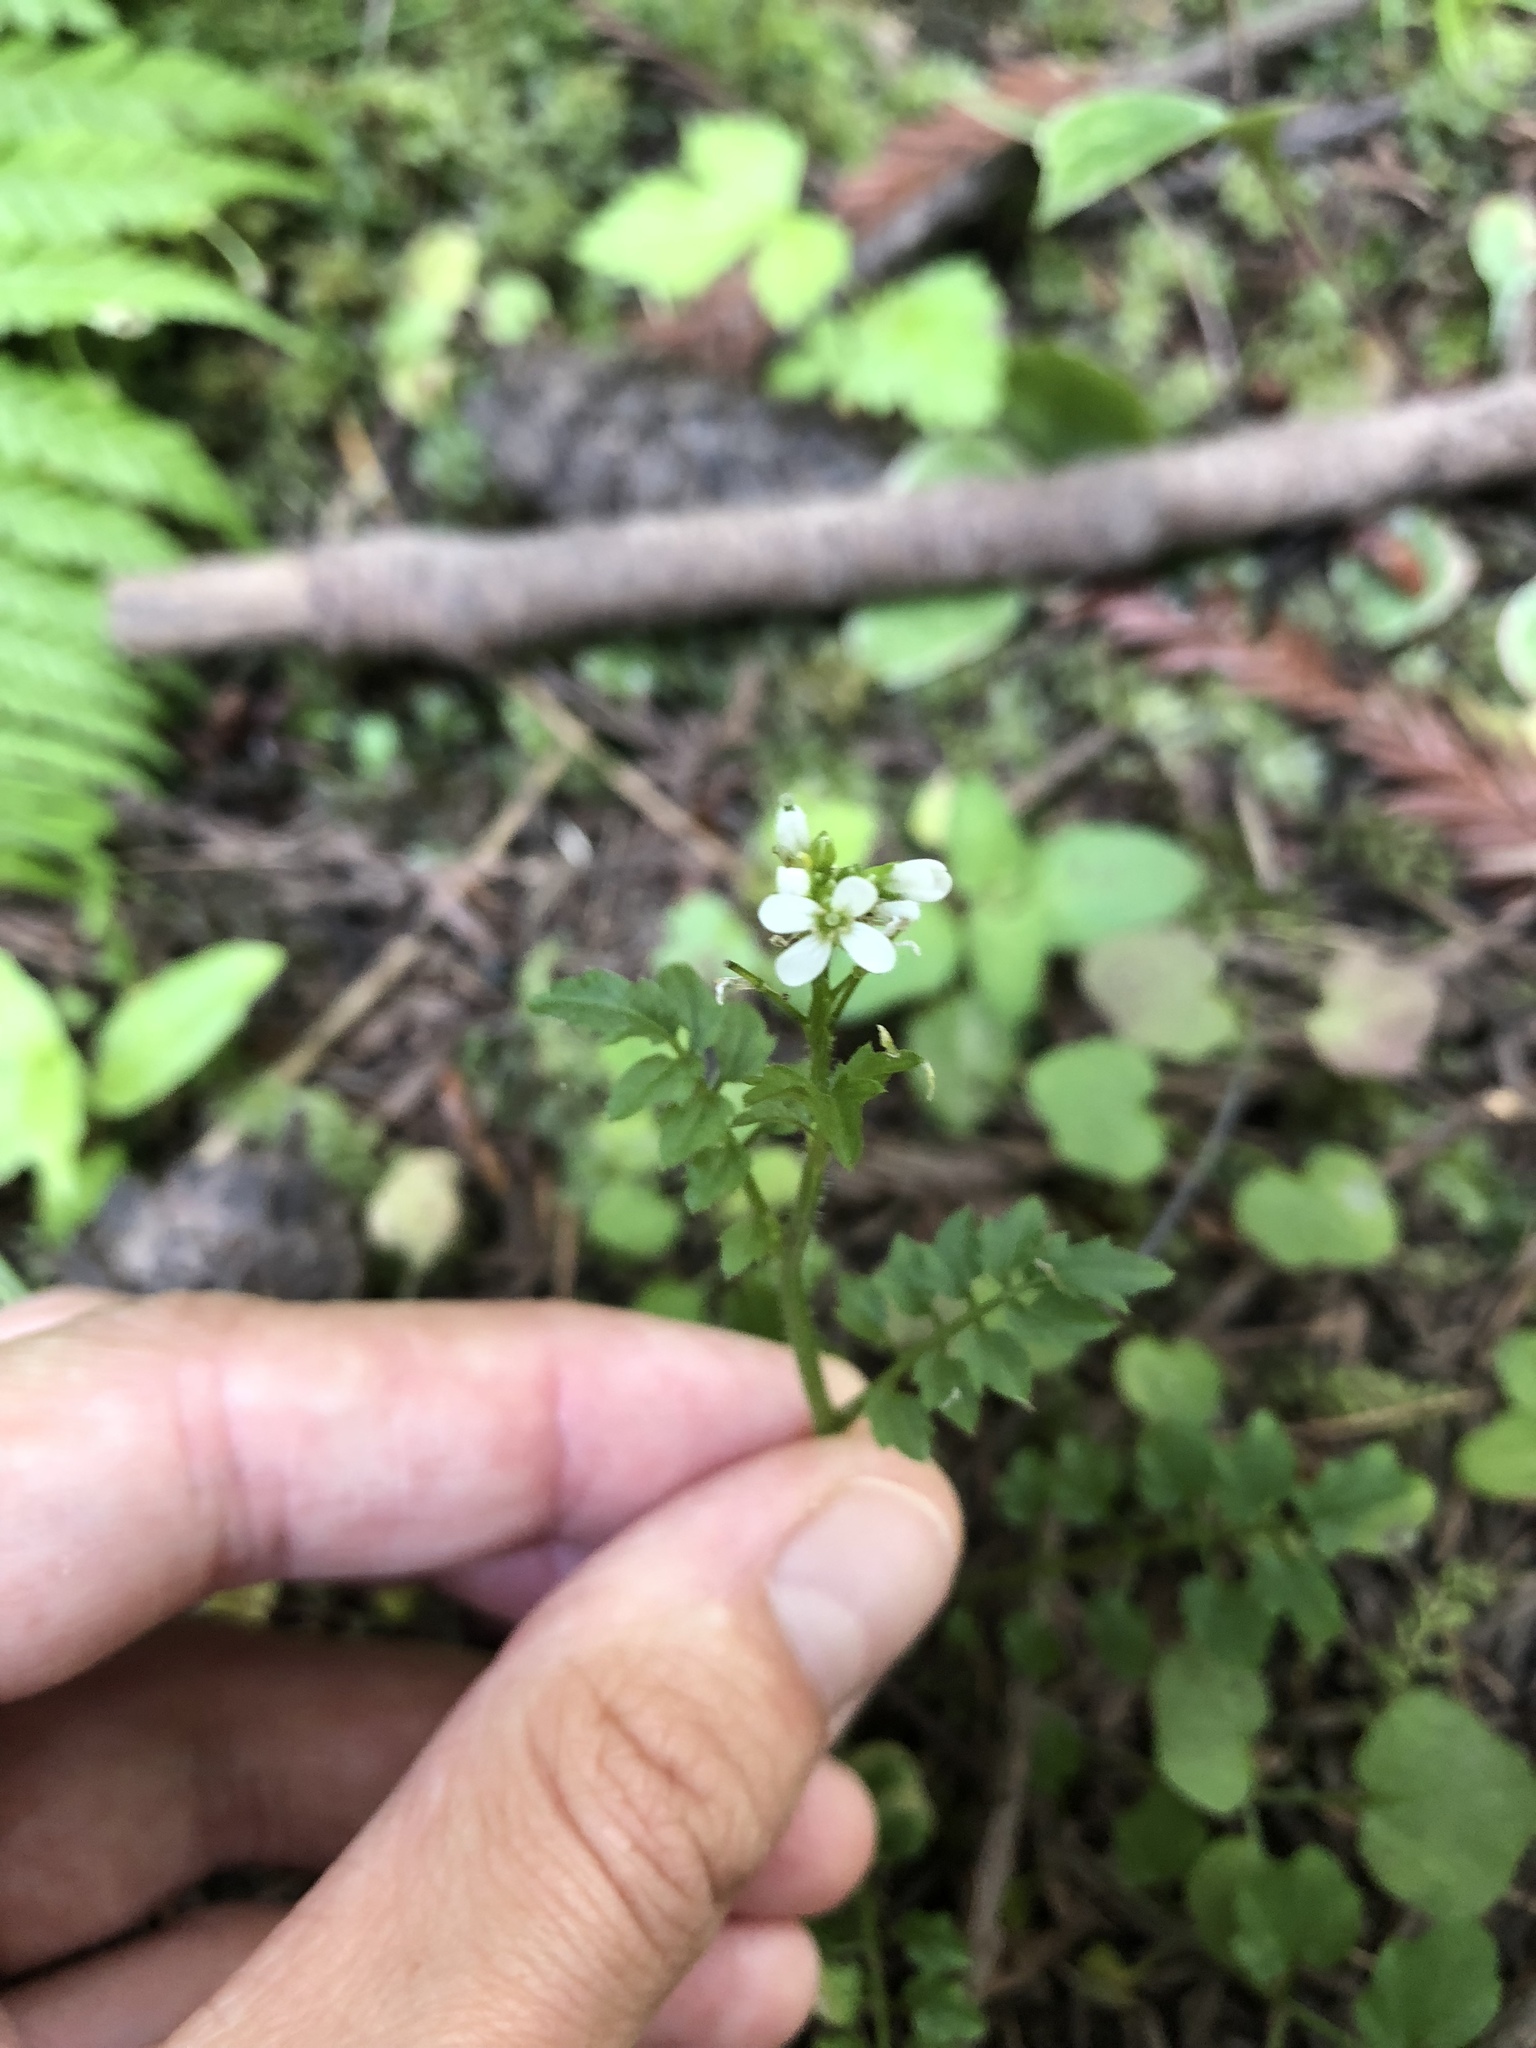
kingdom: Plantae
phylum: Tracheophyta
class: Magnoliopsida
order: Brassicales
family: Brassicaceae
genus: Cardamine
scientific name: Cardamine oligosperma
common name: Idaho bittercress
